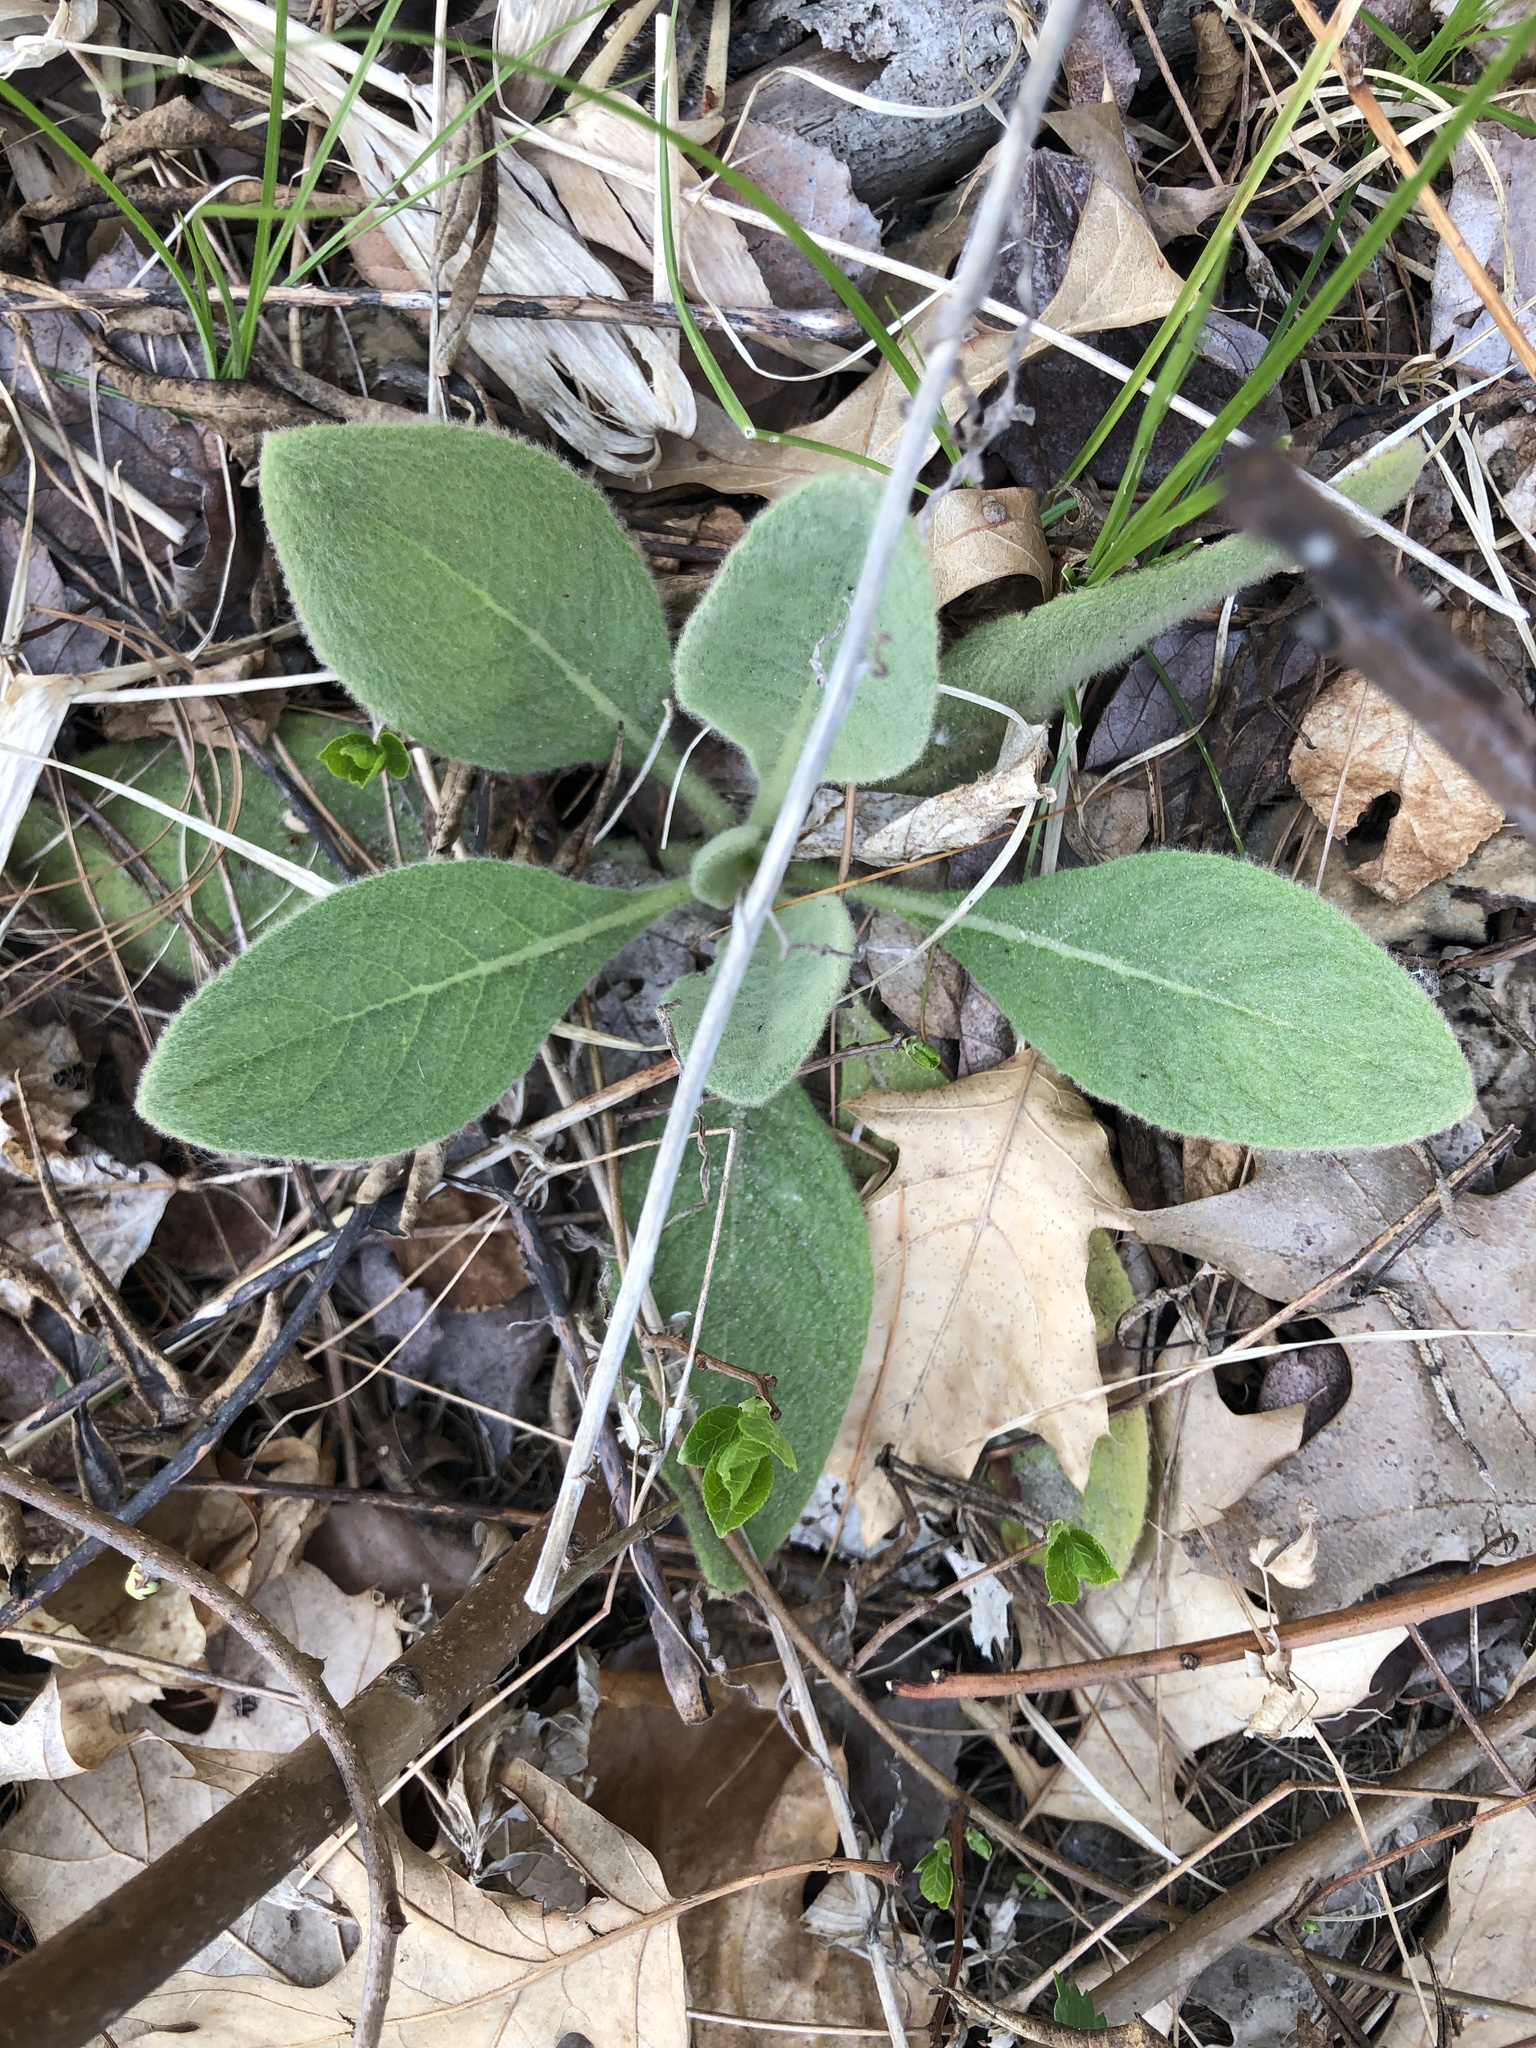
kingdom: Plantae
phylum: Tracheophyta
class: Magnoliopsida
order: Lamiales
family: Scrophulariaceae
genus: Verbascum
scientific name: Verbascum thapsus
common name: Common mullein
